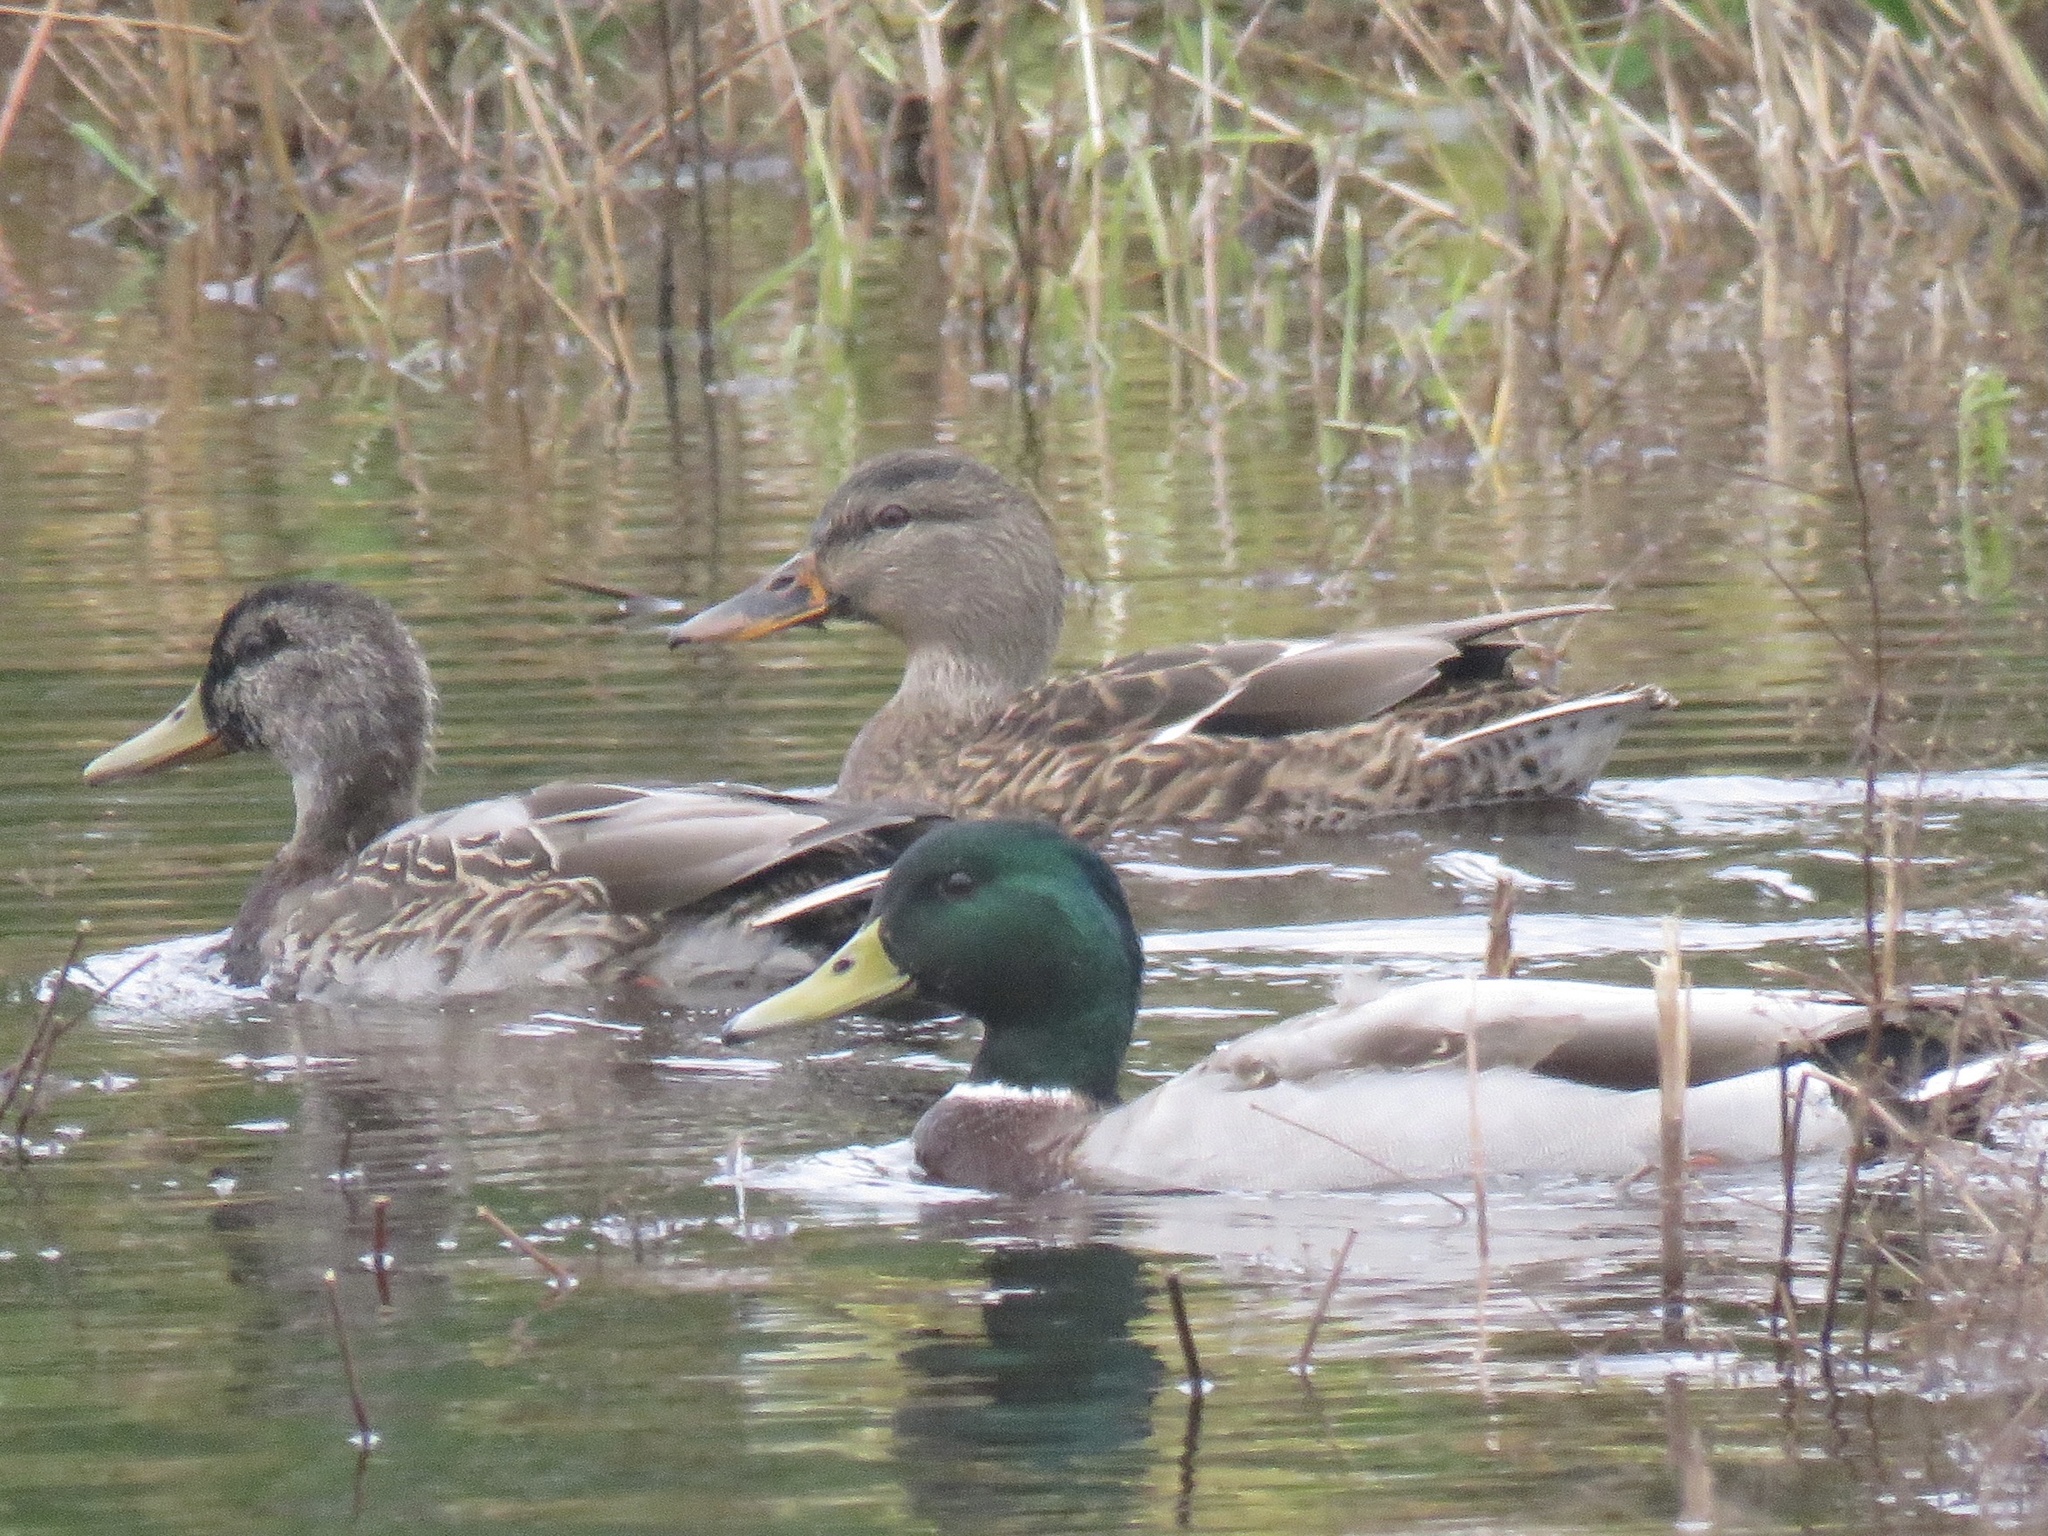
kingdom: Animalia
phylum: Chordata
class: Aves
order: Anseriformes
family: Anatidae
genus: Anas
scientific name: Anas platyrhynchos
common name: Mallard
